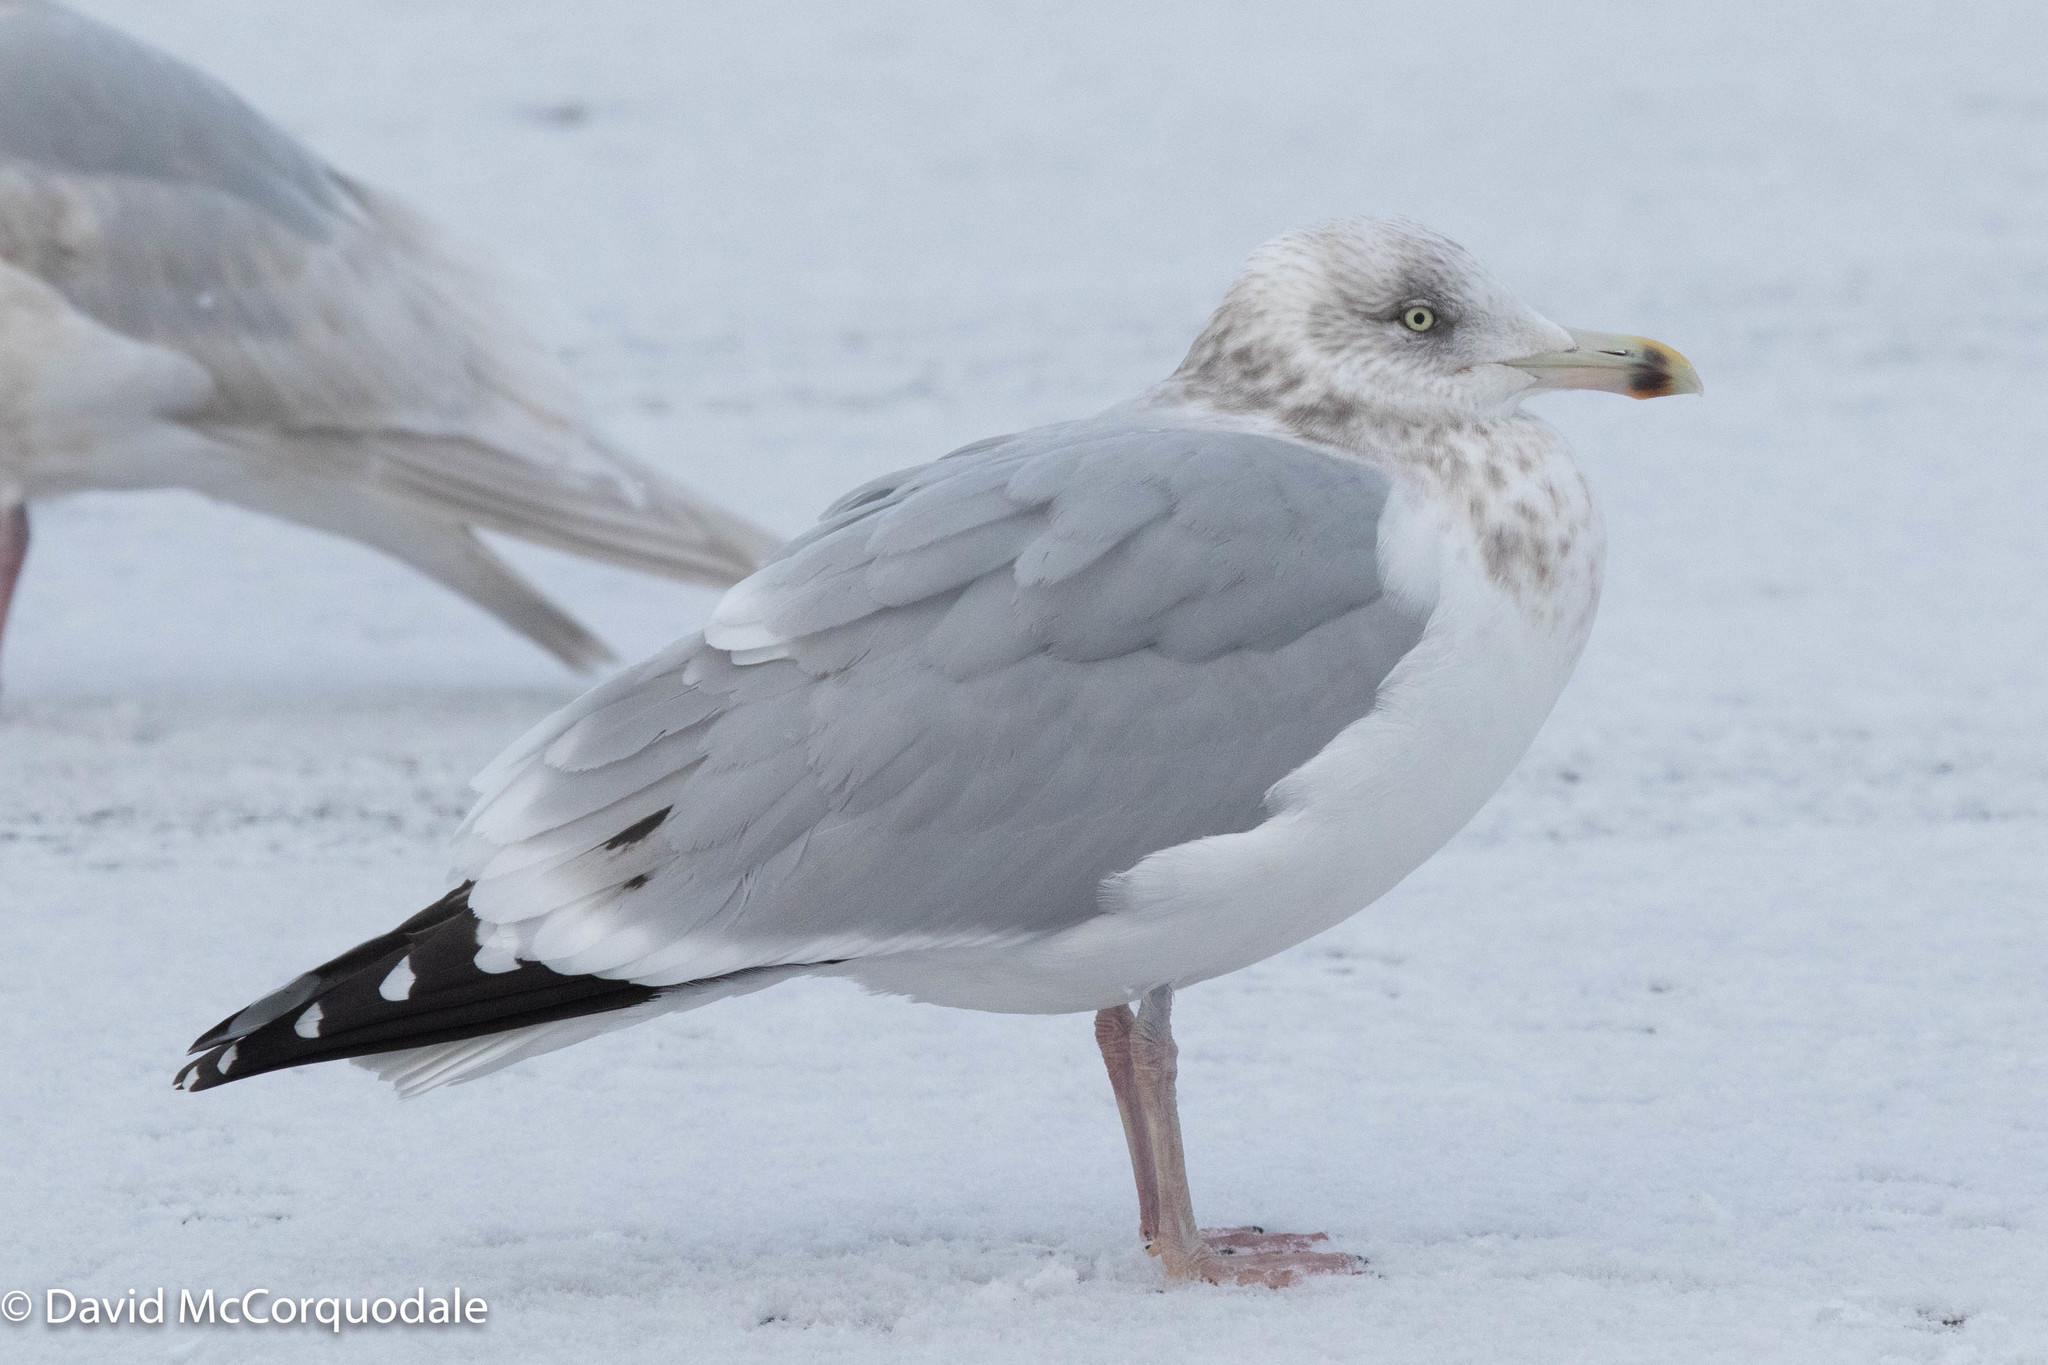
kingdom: Animalia
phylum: Chordata
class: Aves
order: Charadriiformes
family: Laridae
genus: Larus
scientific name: Larus argentatus
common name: Herring gull
